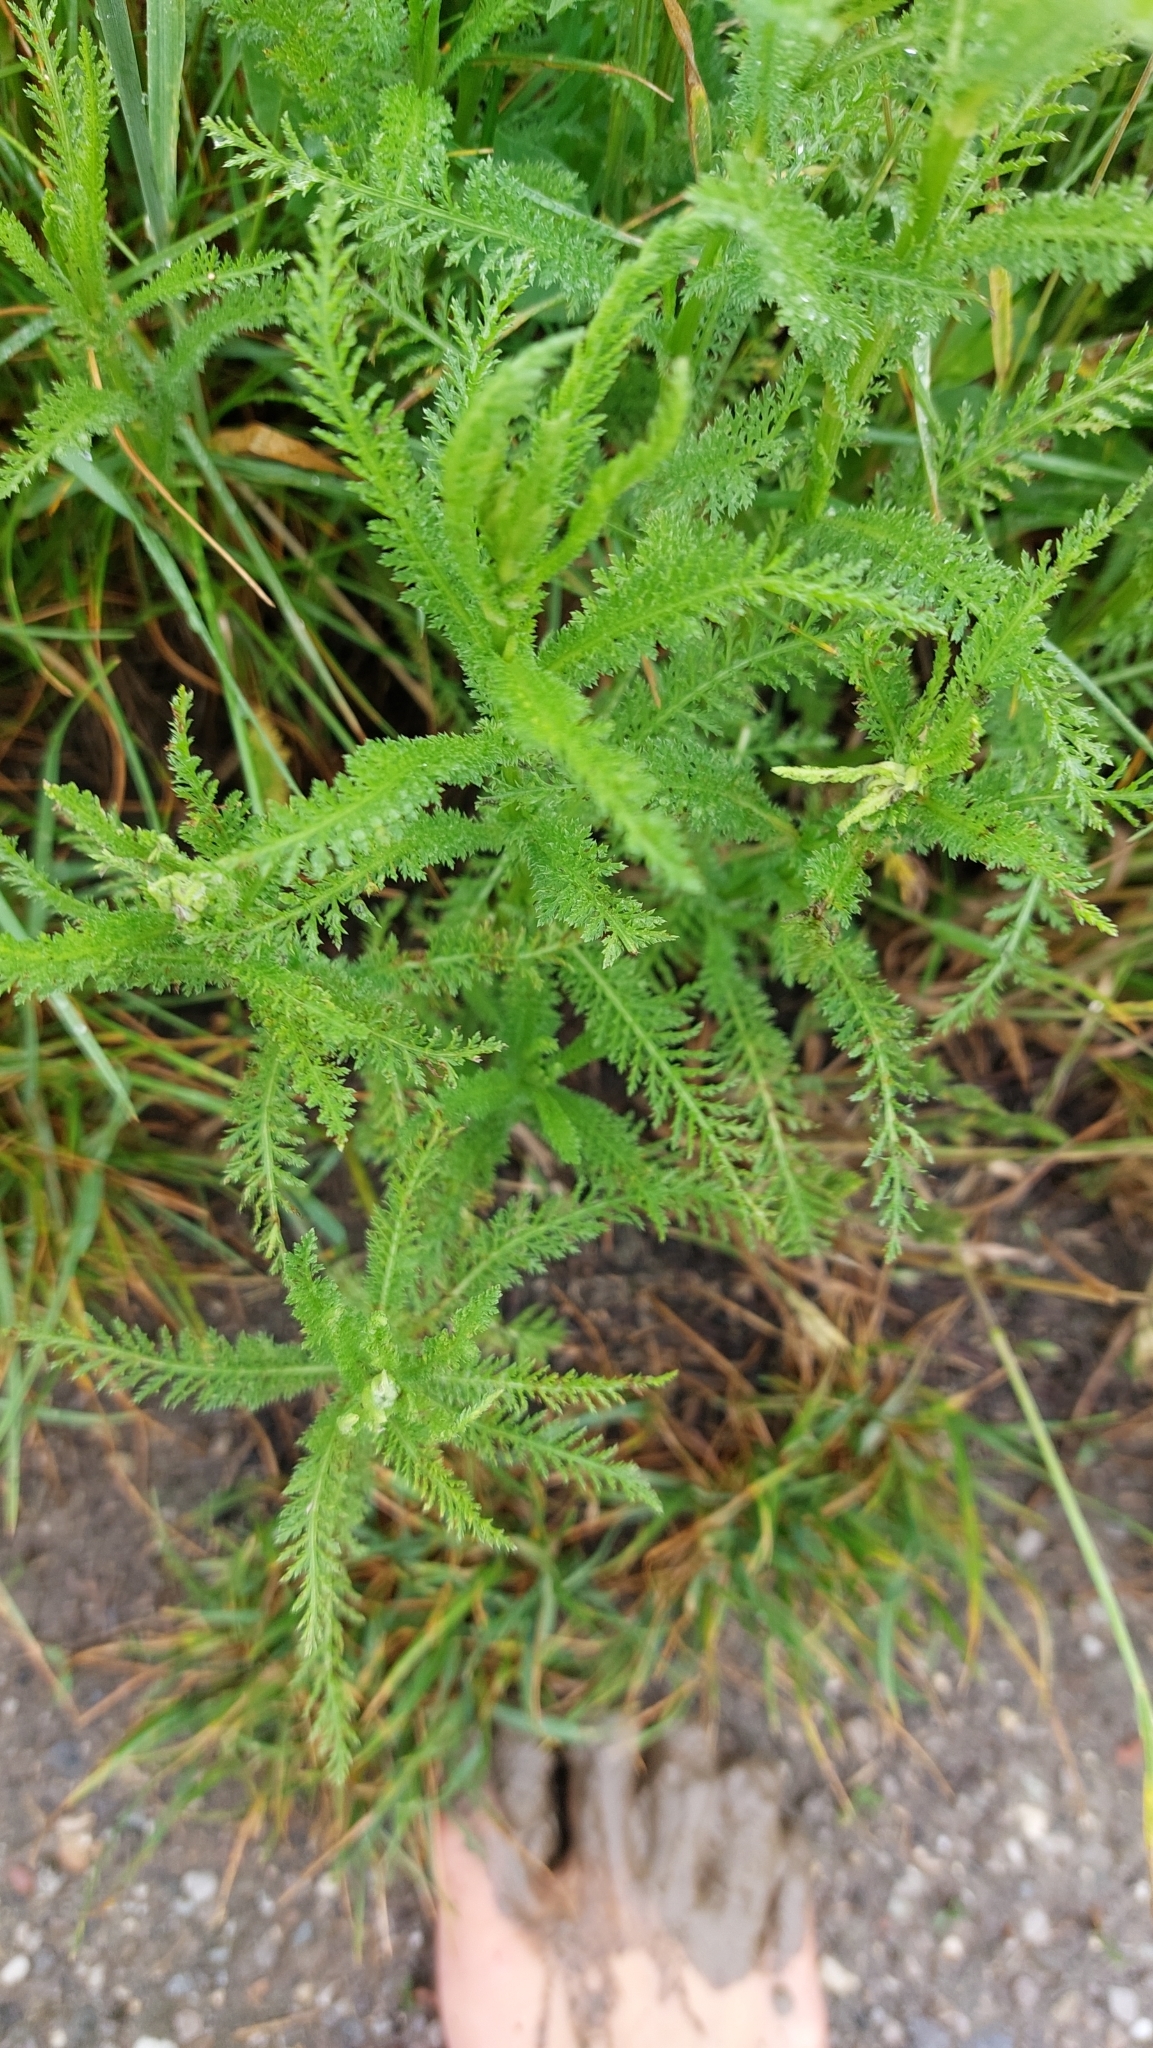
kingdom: Plantae
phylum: Tracheophyta
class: Magnoliopsida
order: Asterales
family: Asteraceae
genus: Achillea
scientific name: Achillea millefolium
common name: Yarrow
